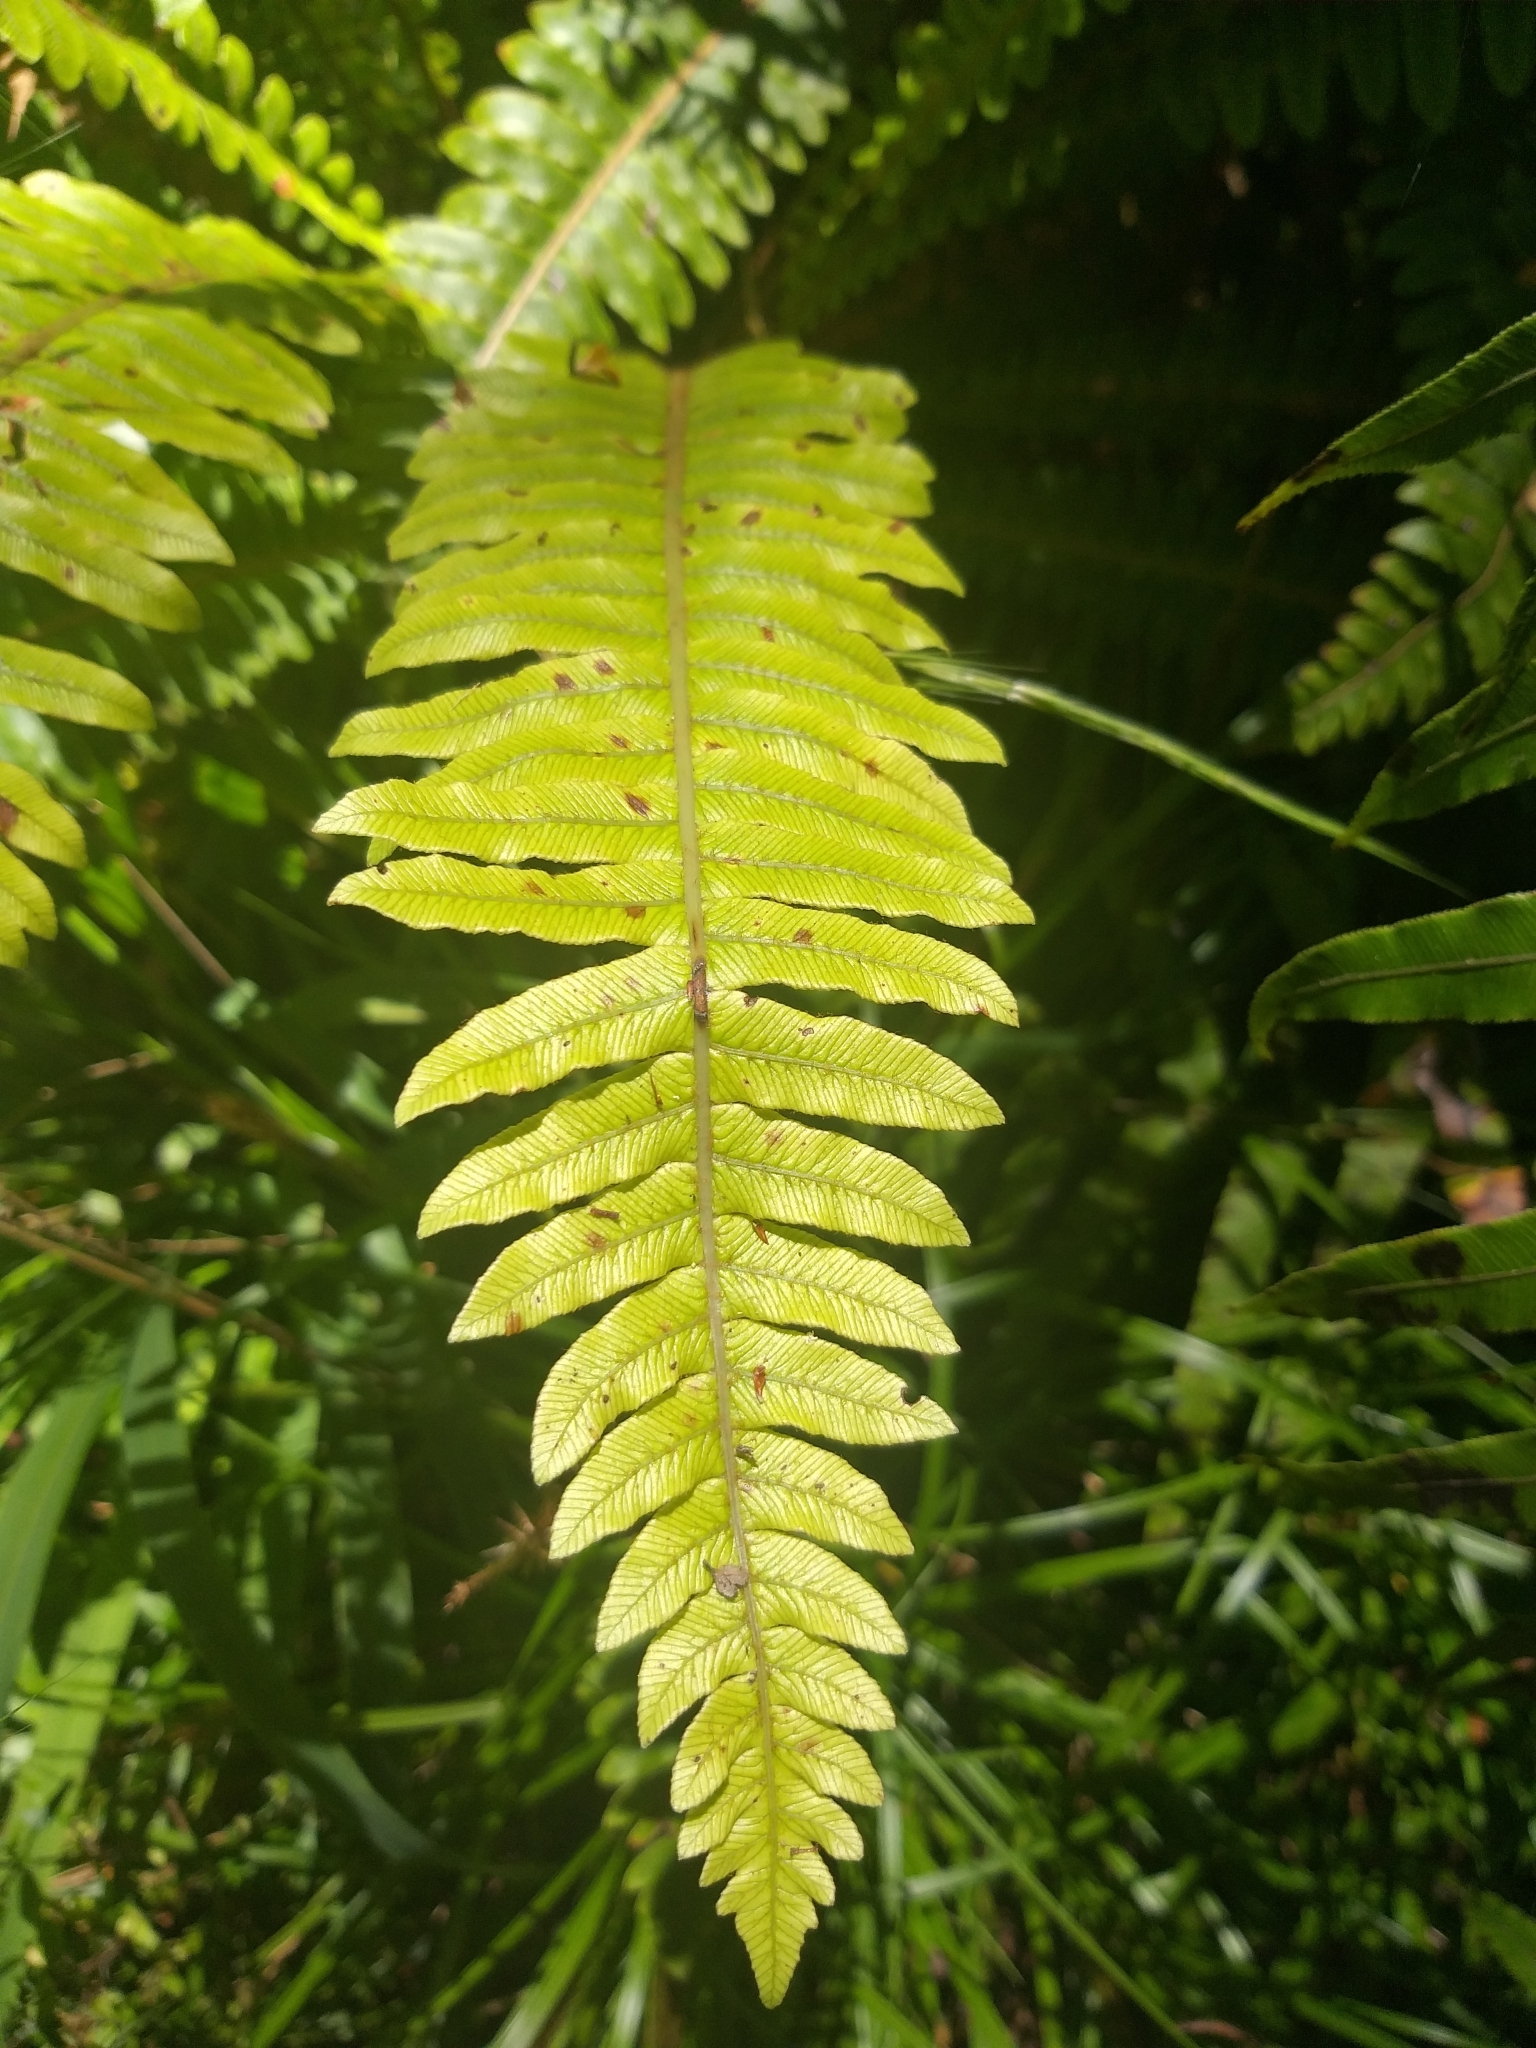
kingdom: Plantae
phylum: Tracheophyta
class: Polypodiopsida
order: Polypodiales
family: Blechnaceae
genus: Lomaria
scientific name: Lomaria discolor
